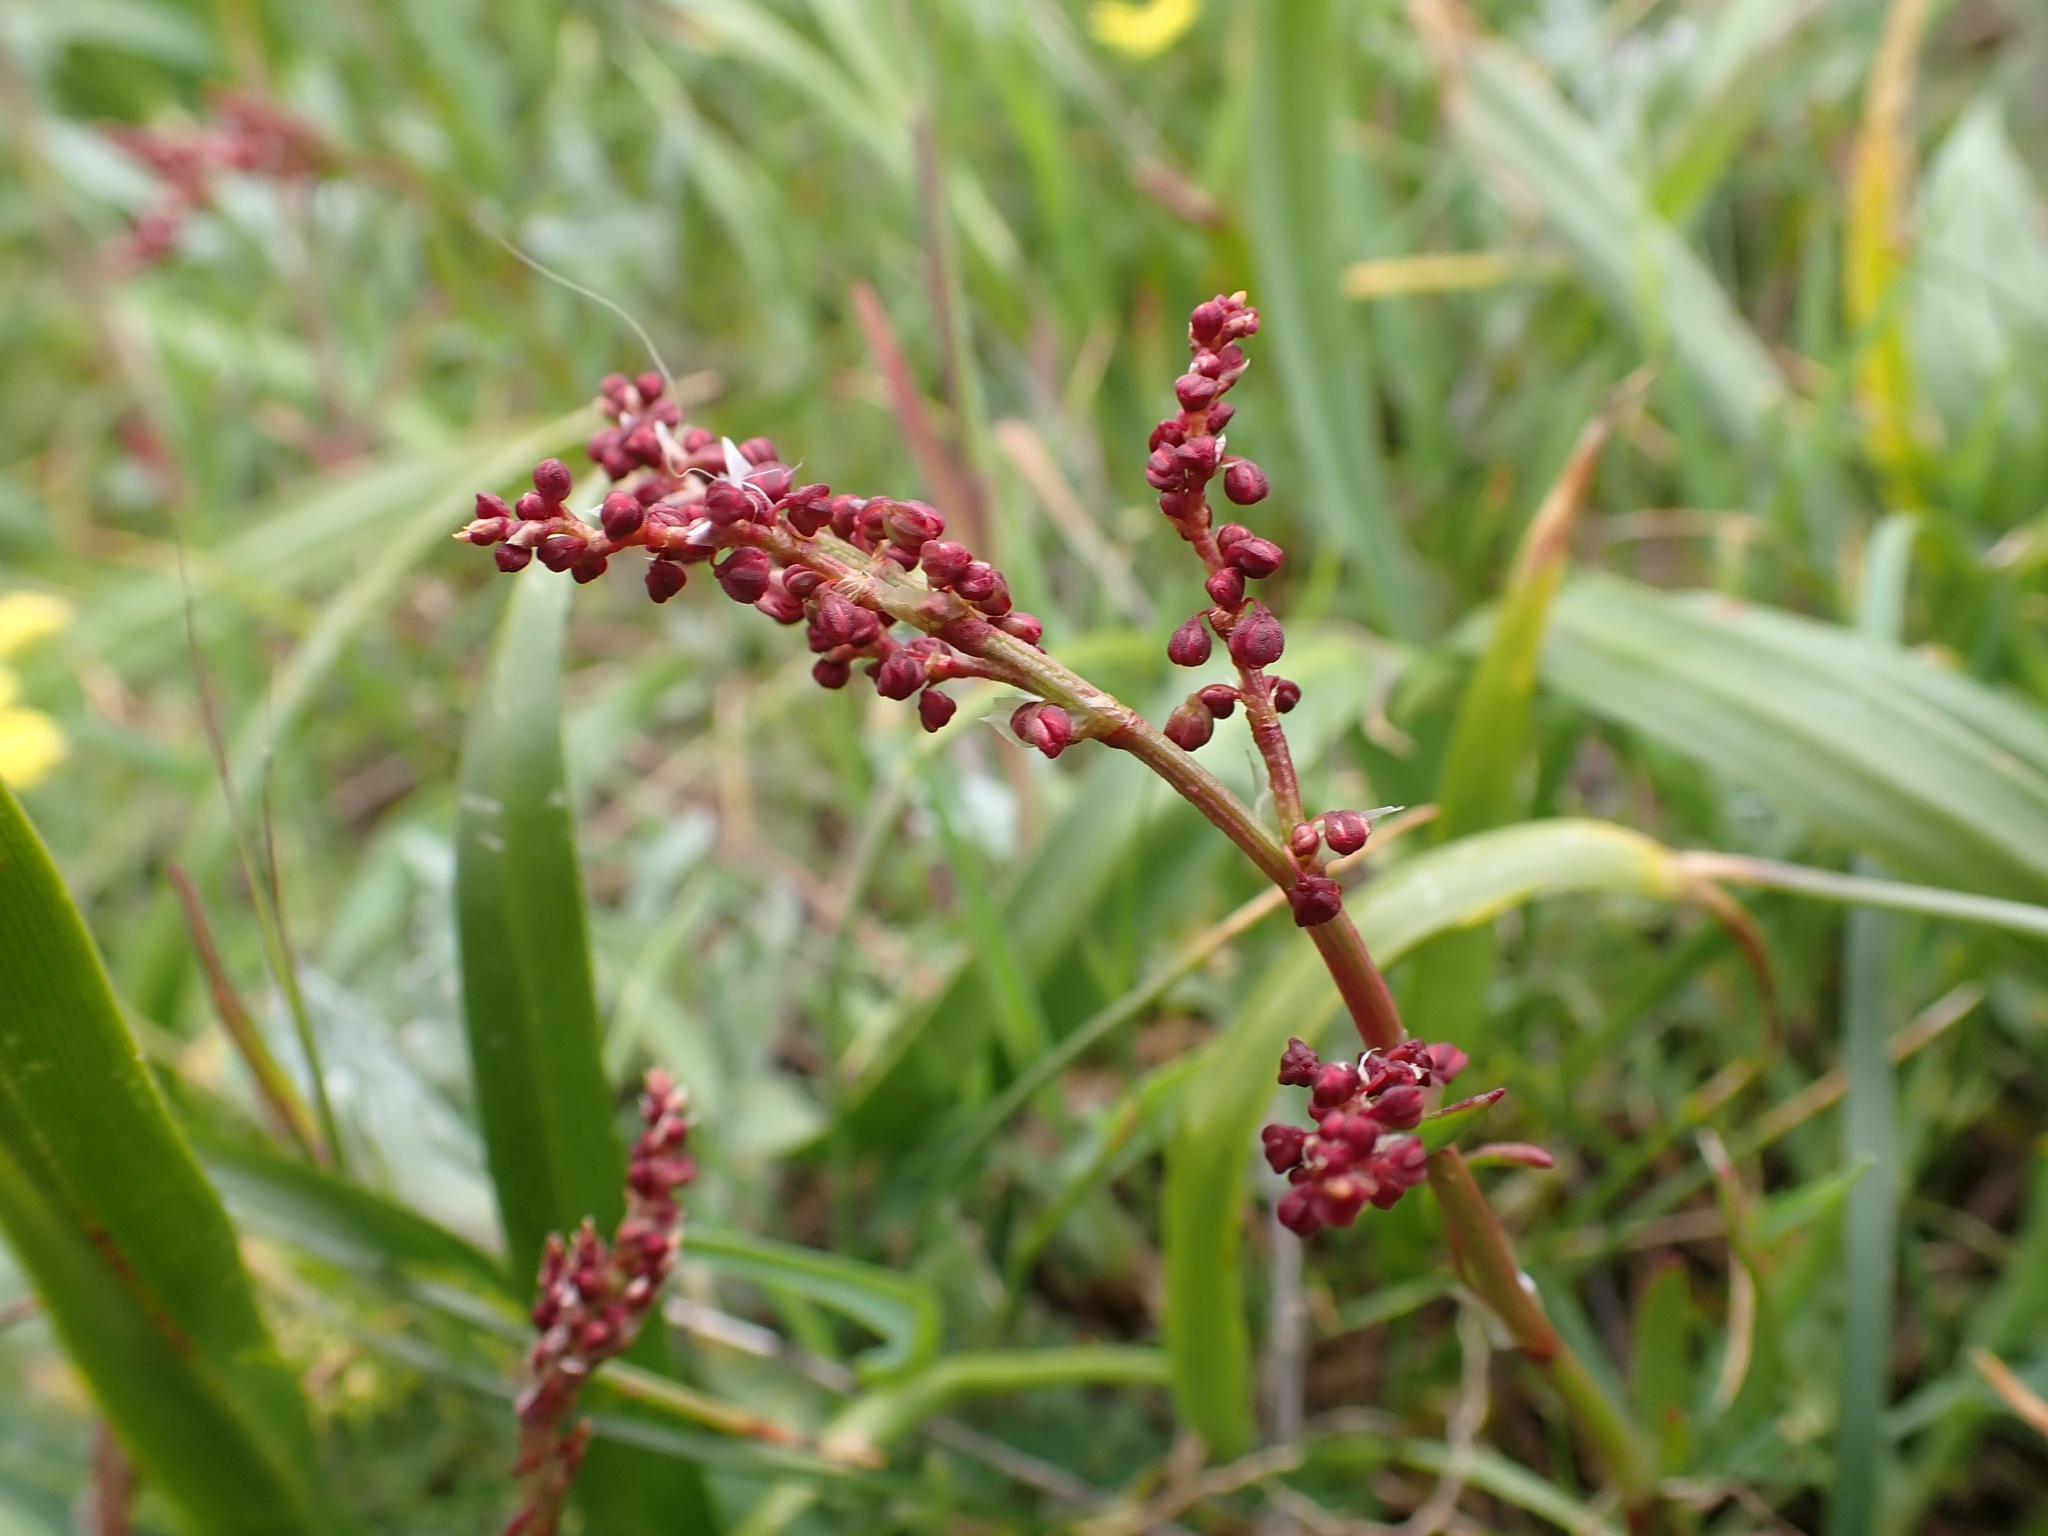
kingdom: Plantae
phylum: Tracheophyta
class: Magnoliopsida
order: Caryophyllales
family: Polygonaceae
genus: Rumex
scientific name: Rumex acetosella
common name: Common sheep sorrel
